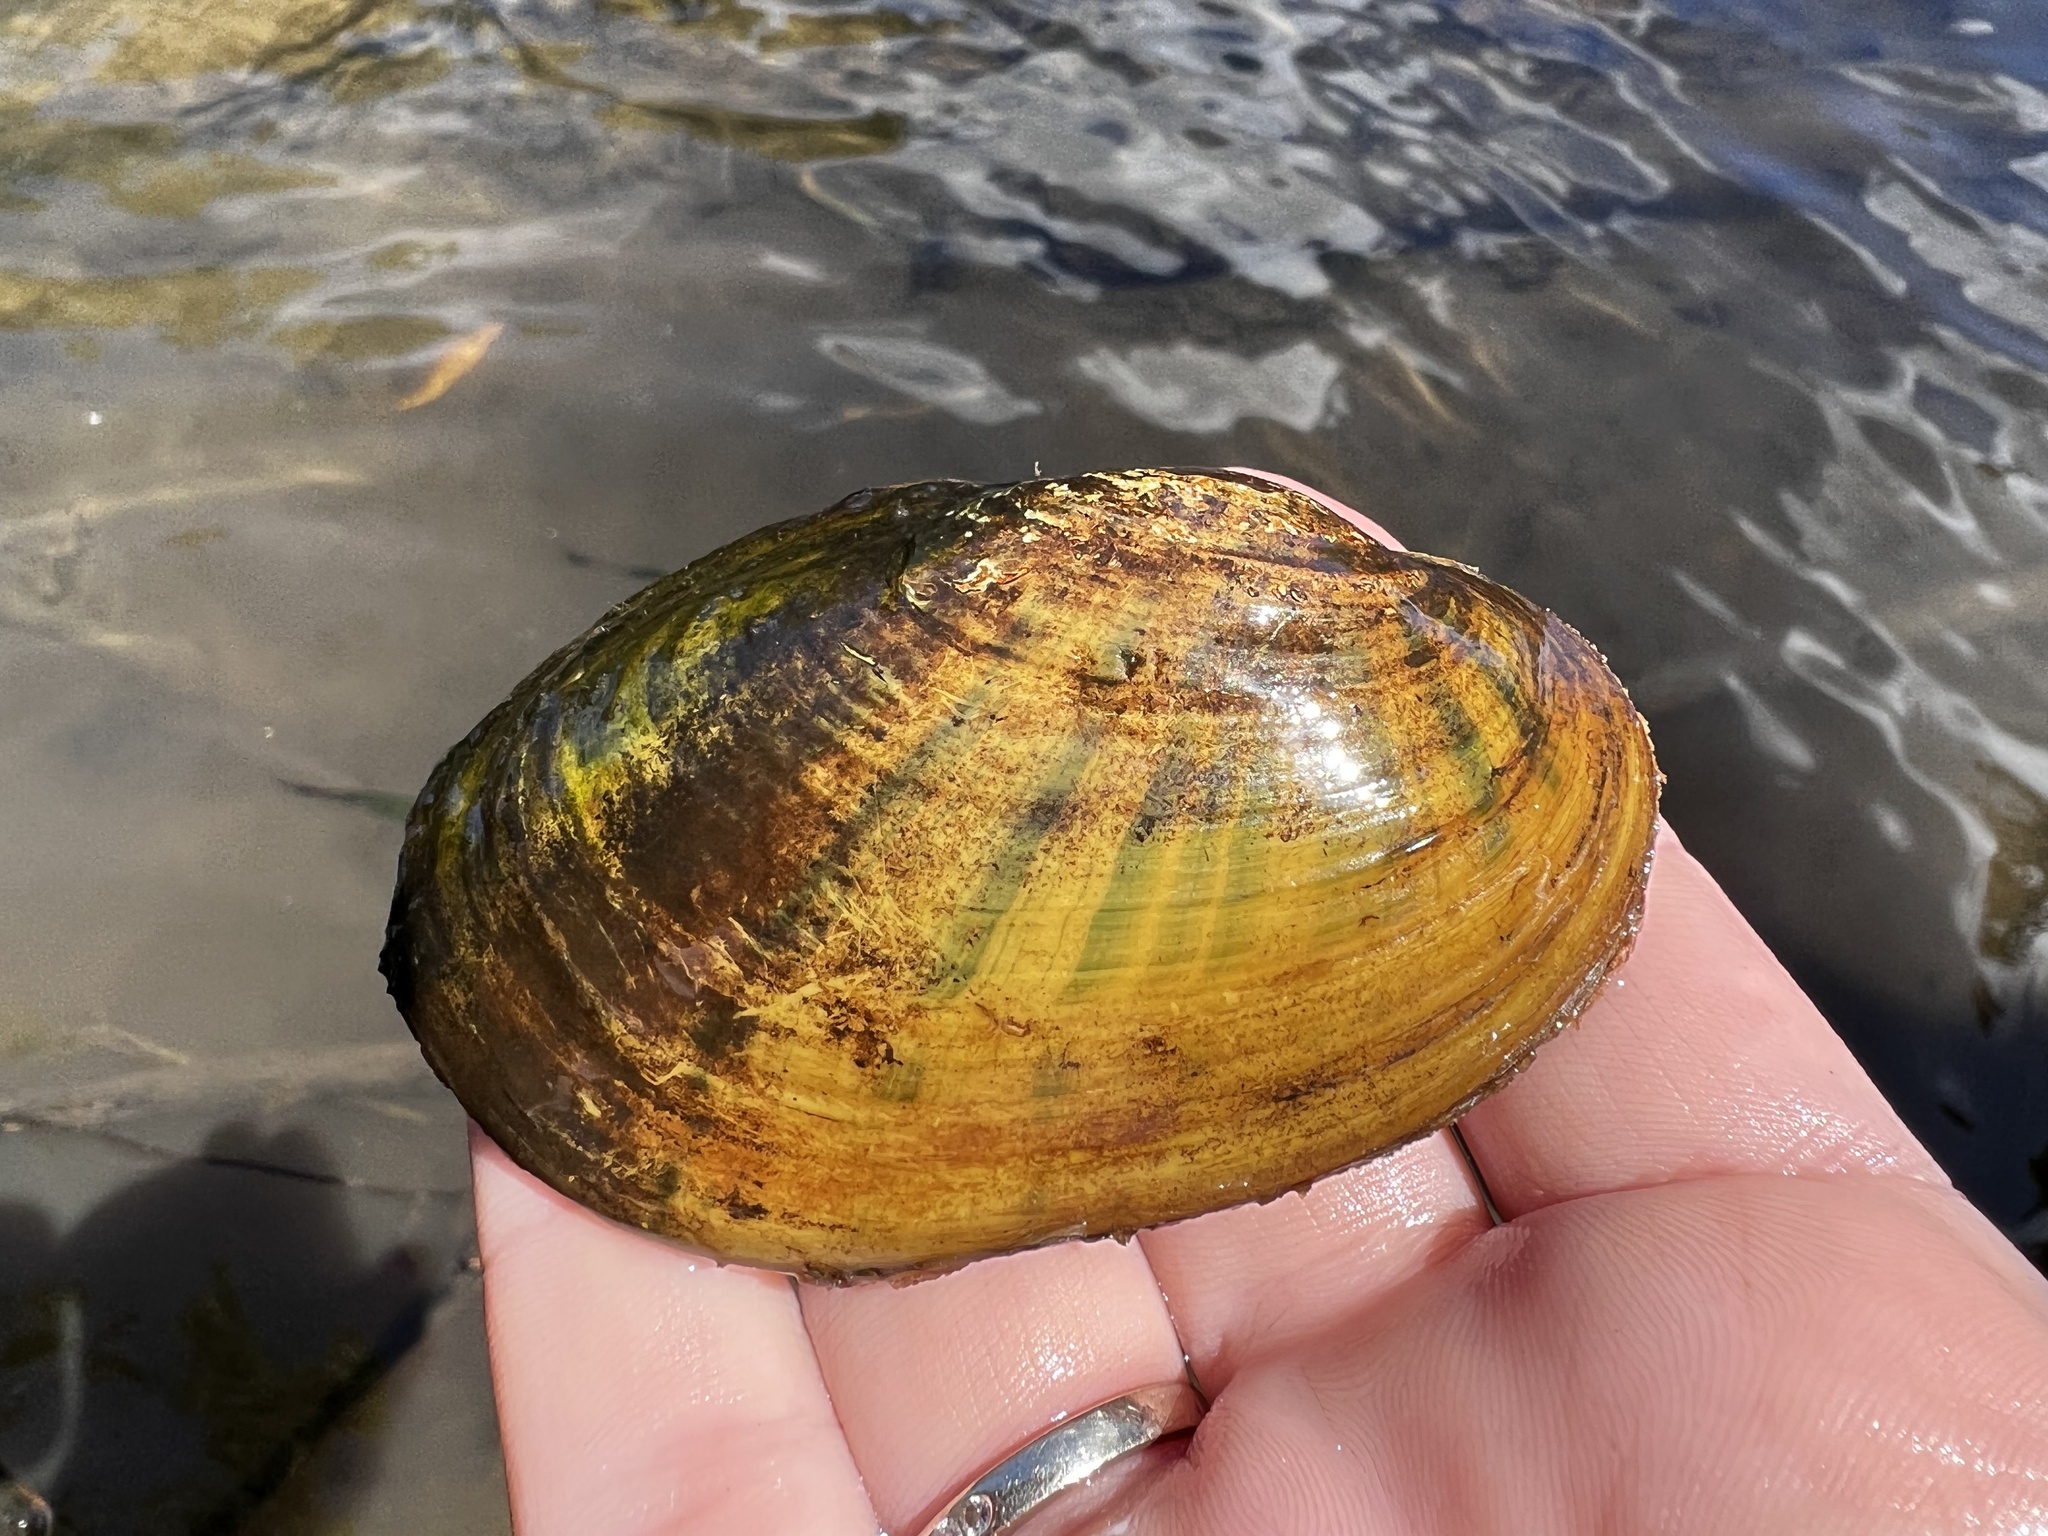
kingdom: Animalia
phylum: Mollusca
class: Bivalvia
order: Unionida
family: Unionidae
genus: Lampsilis
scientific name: Lampsilis siliquoidea
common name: Fatmucket
